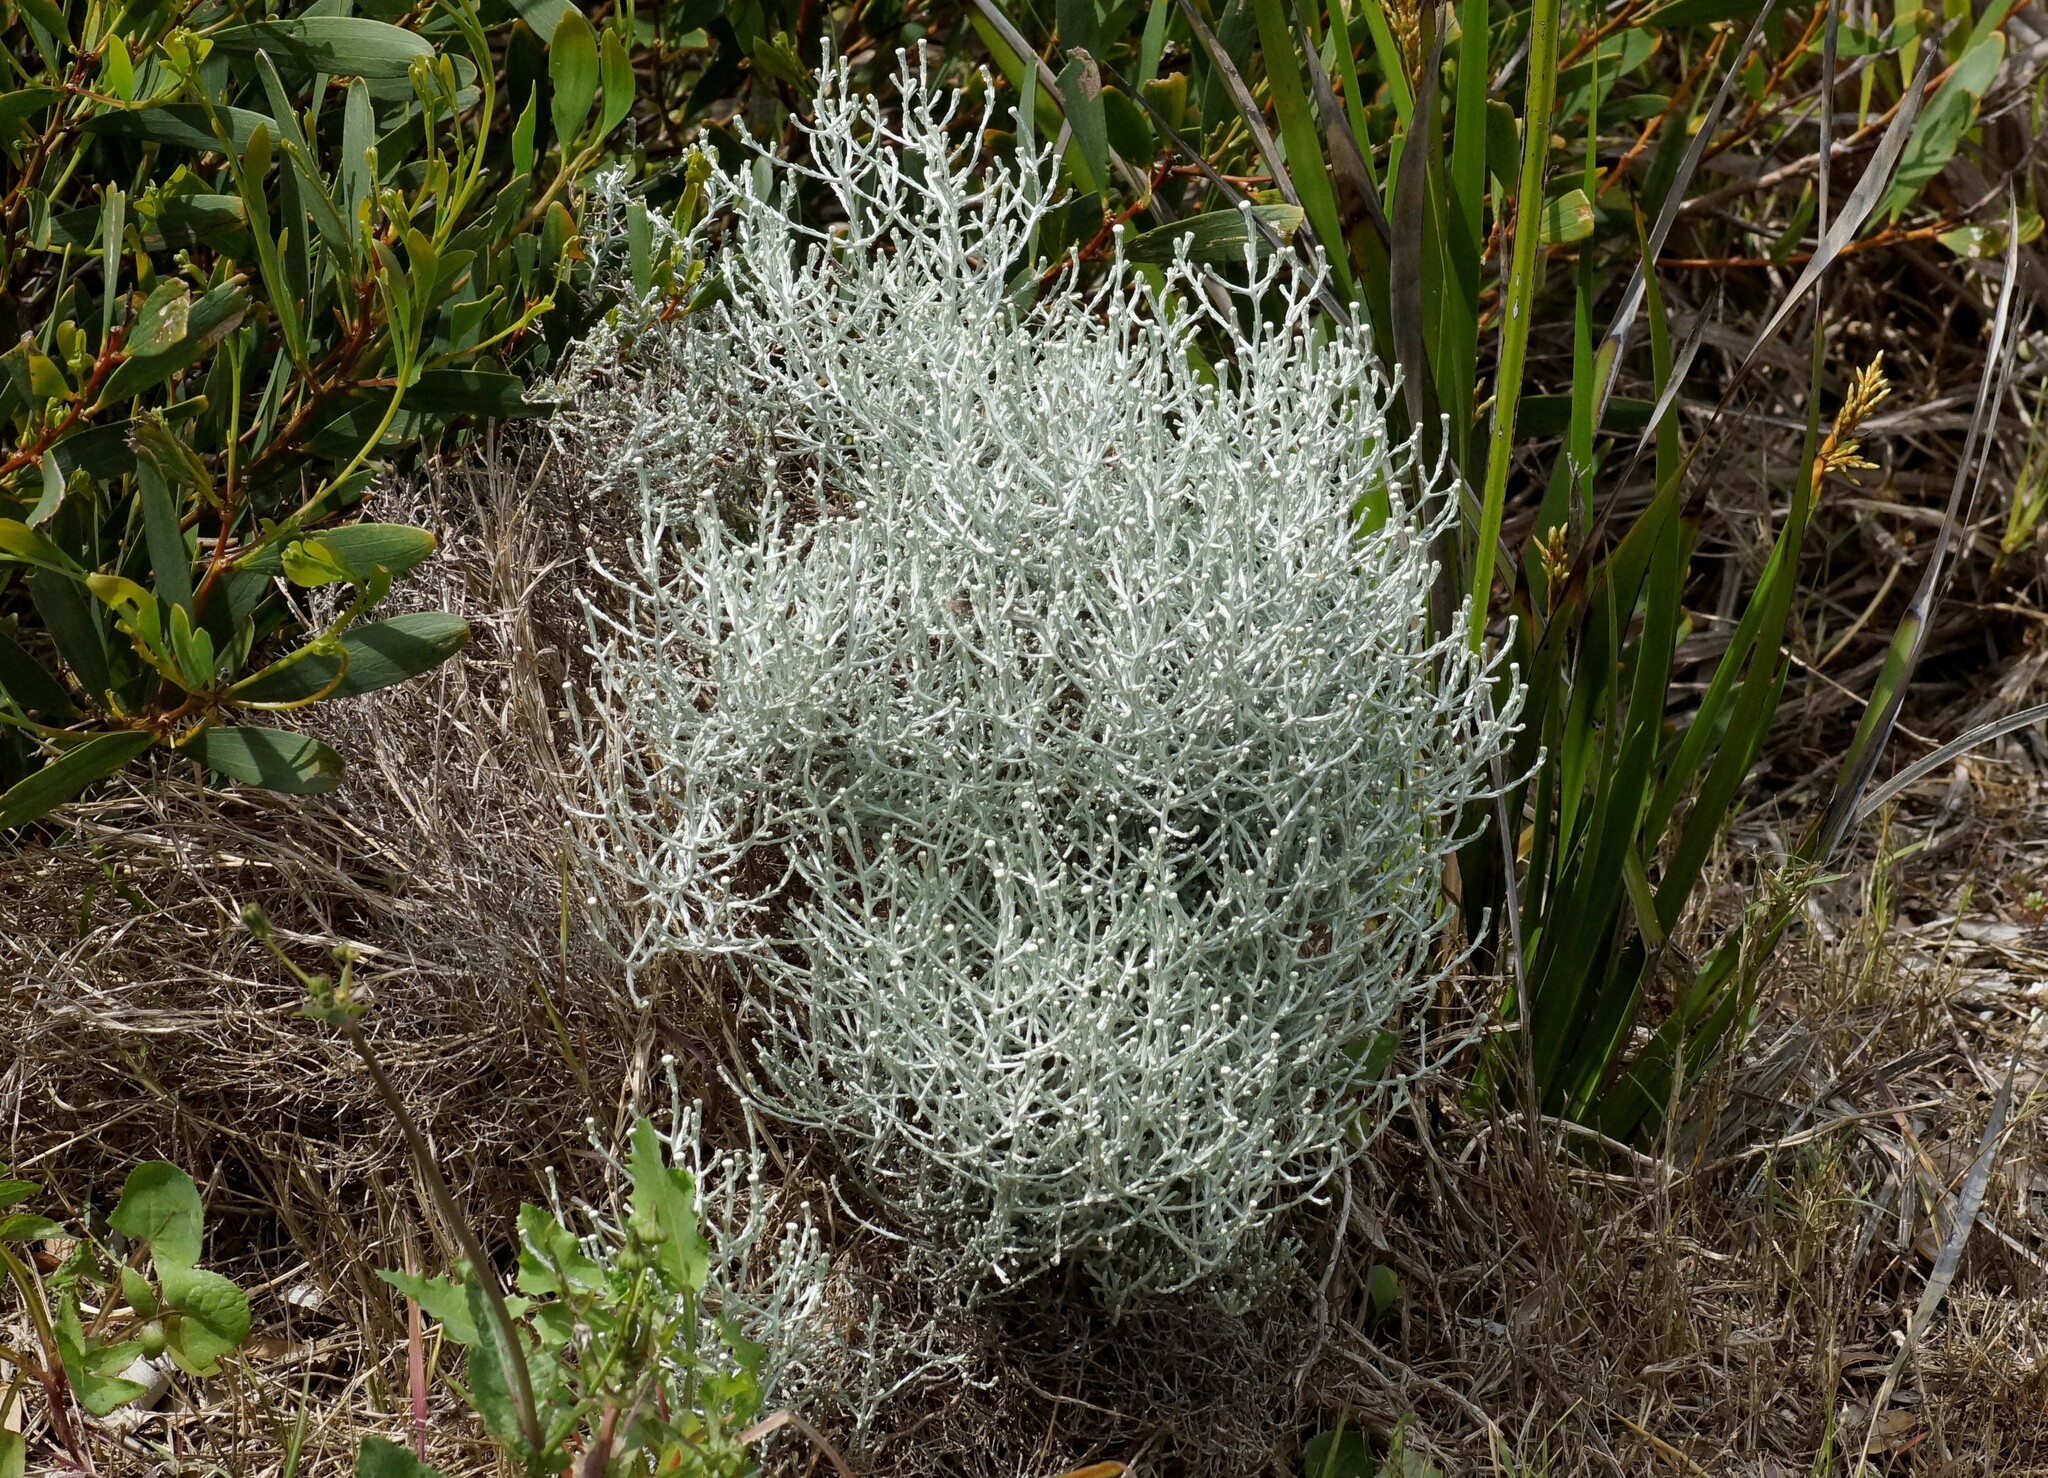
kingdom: Plantae
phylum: Tracheophyta
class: Magnoliopsida
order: Asterales
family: Asteraceae
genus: Calocephalus
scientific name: Calocephalus brownii
